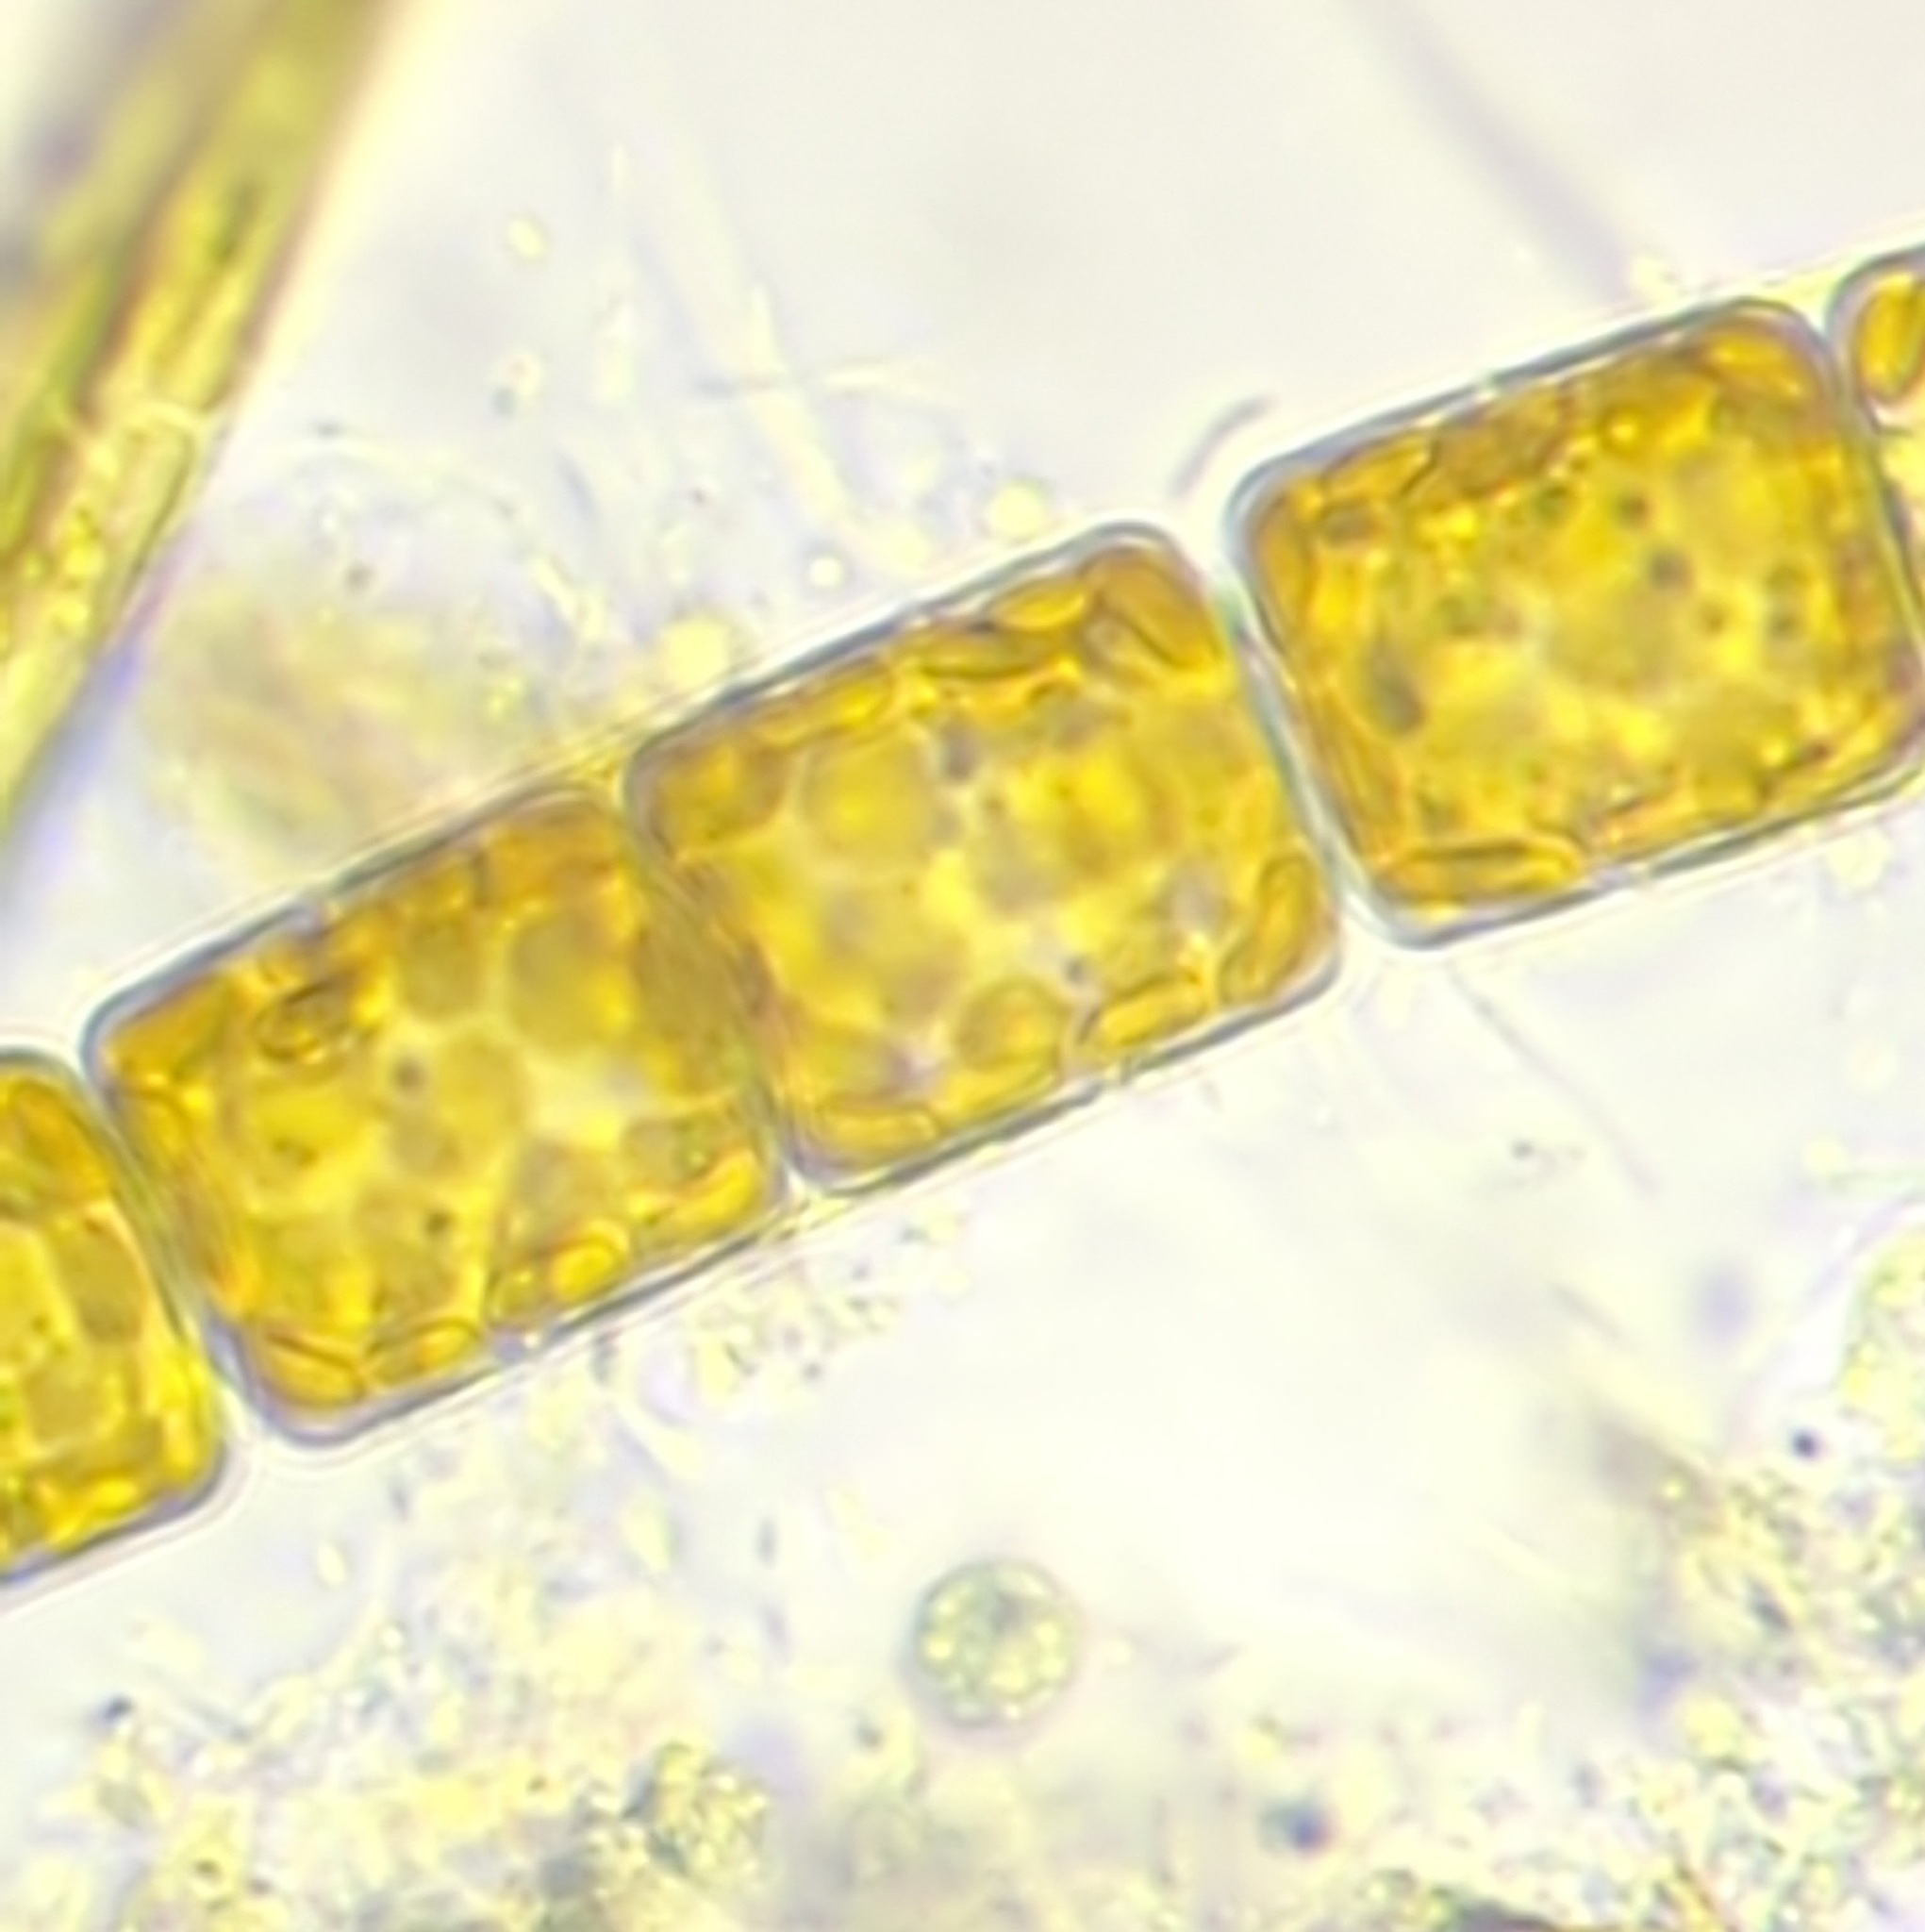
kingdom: Chromista
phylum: Ochrophyta
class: Bacillariophyceae
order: Melosirales
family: Melosiraceae
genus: Melosira
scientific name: Melosira varians
